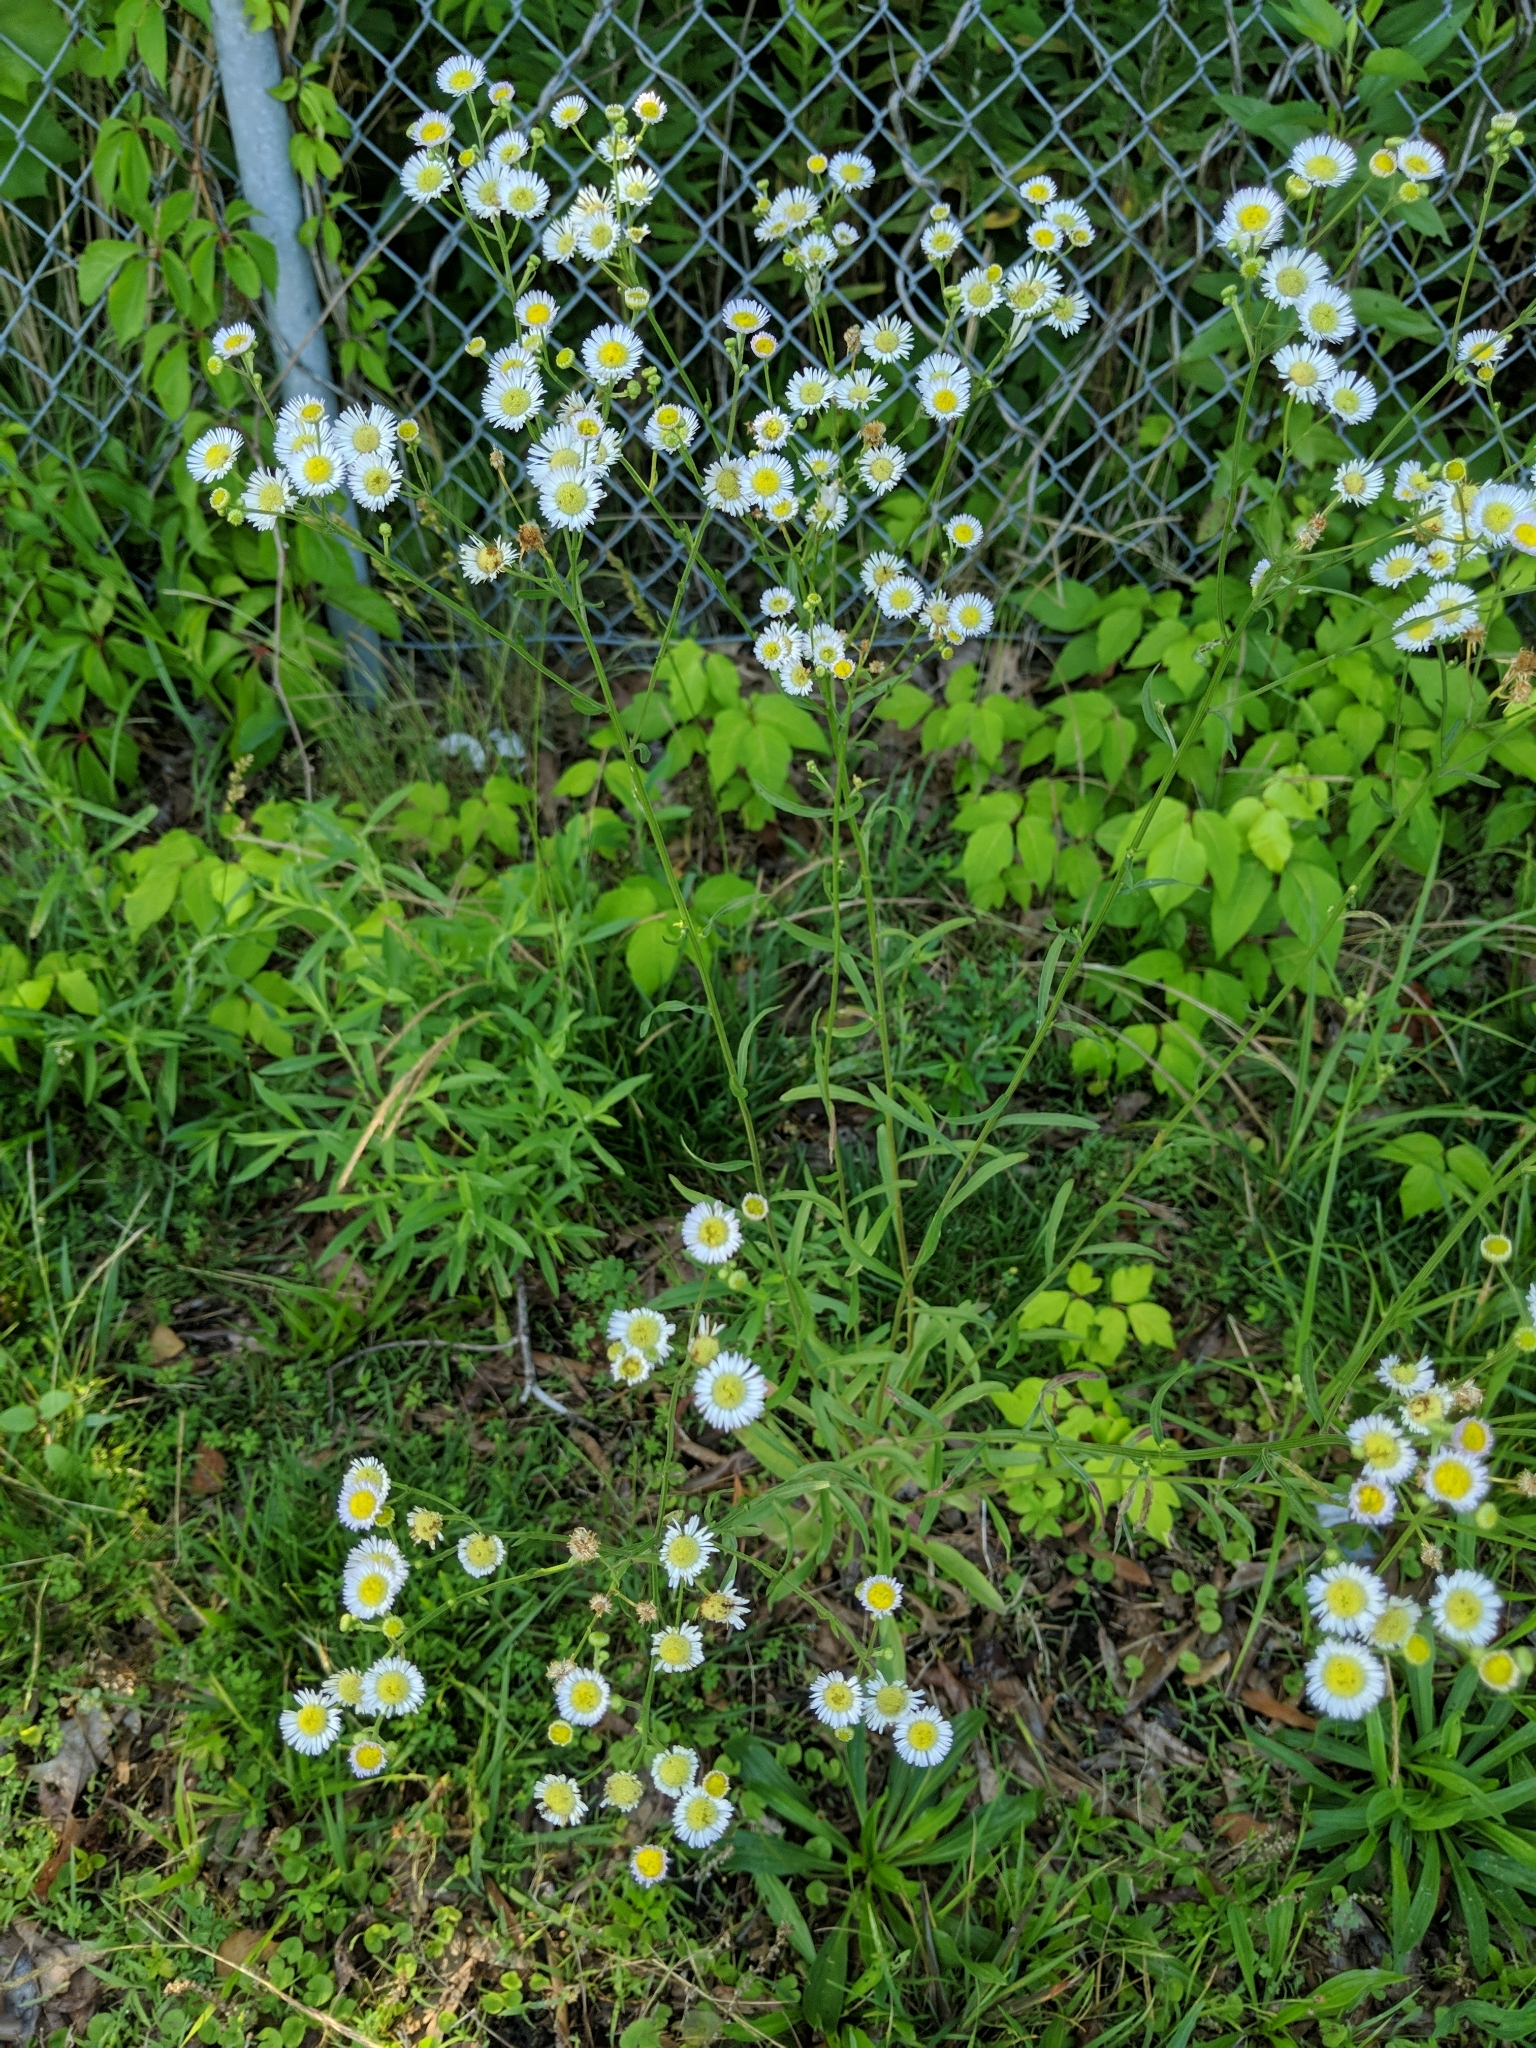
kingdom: Plantae
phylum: Tracheophyta
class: Magnoliopsida
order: Asterales
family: Asteraceae
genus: Erigeron
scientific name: Erigeron strigosus
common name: Common eastern fleabane
